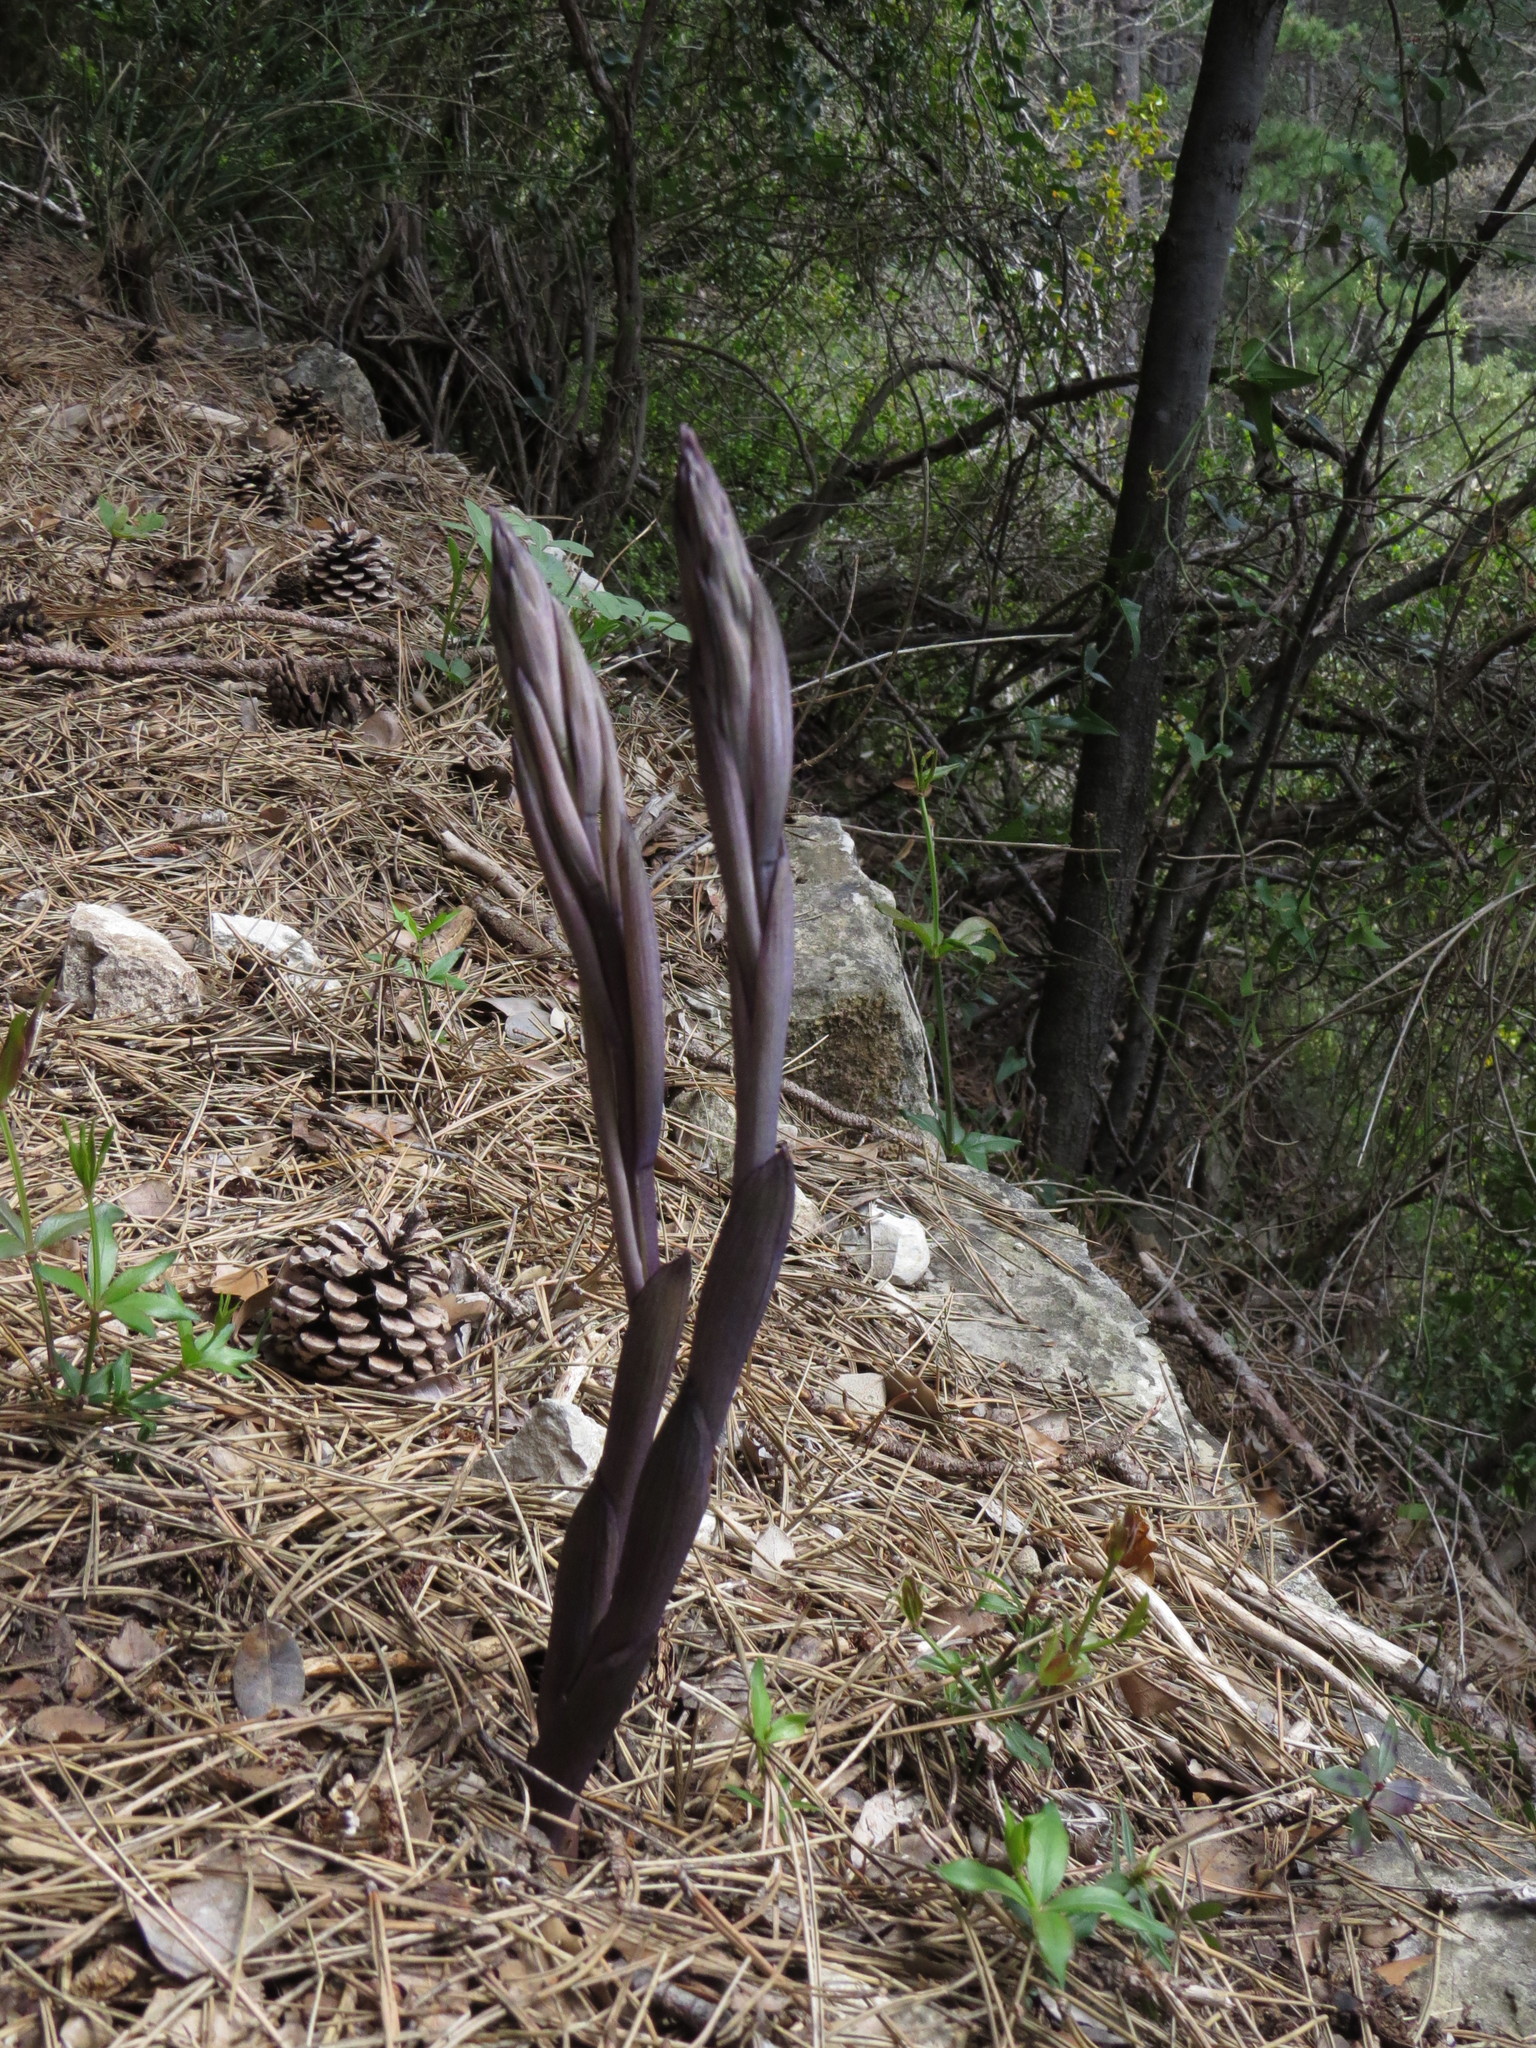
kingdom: Plantae
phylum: Tracheophyta
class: Liliopsida
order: Asparagales
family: Orchidaceae
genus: Limodorum
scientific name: Limodorum abortivum
